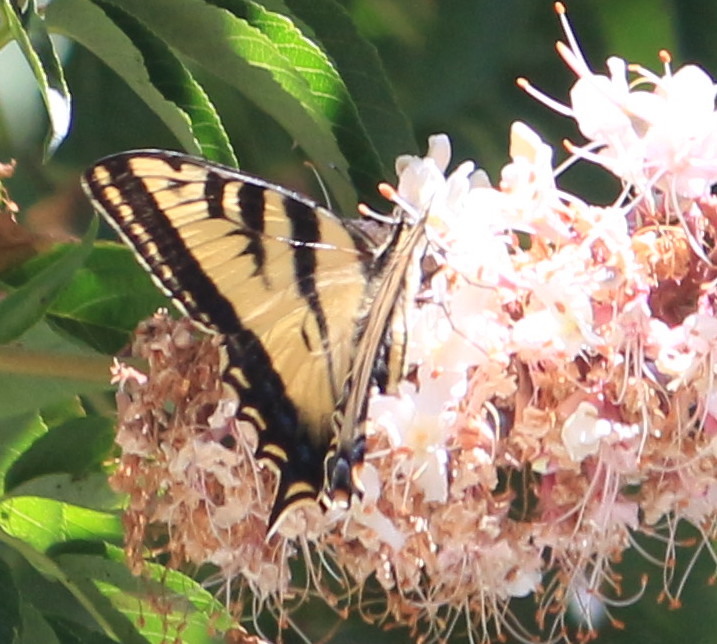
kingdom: Animalia
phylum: Arthropoda
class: Insecta
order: Lepidoptera
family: Papilionidae
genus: Papilio
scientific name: Papilio rutulus
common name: Western tiger swallowtail
